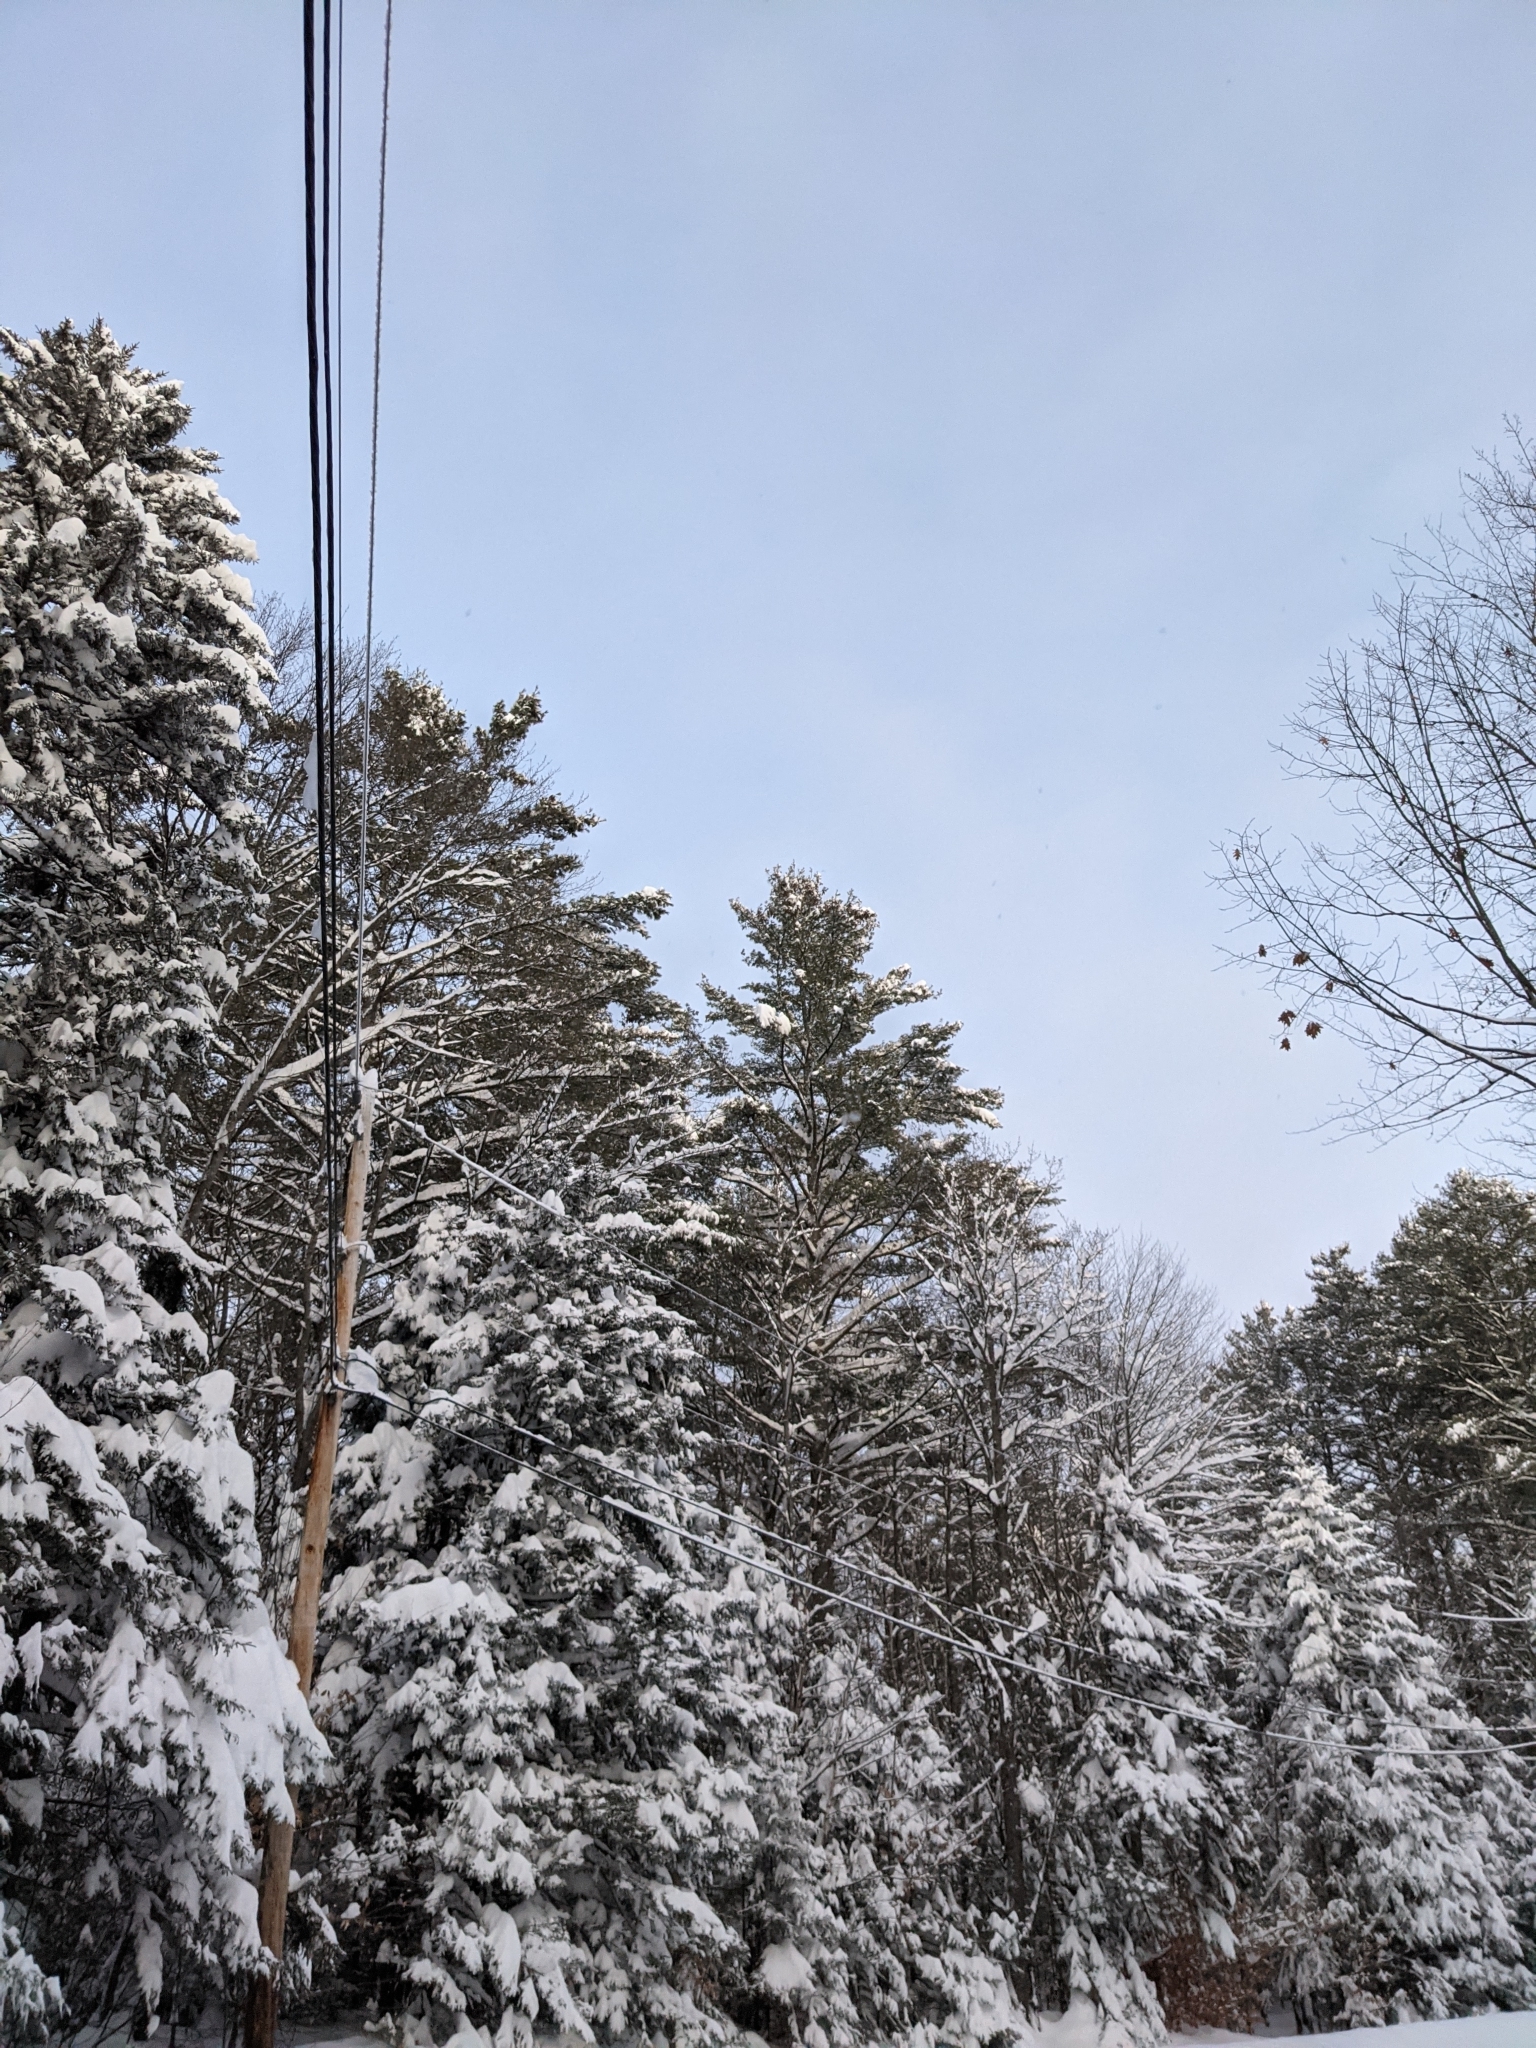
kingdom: Plantae
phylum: Tracheophyta
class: Pinopsida
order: Pinales
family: Pinaceae
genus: Pinus
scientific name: Pinus strobus
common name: Weymouth pine
